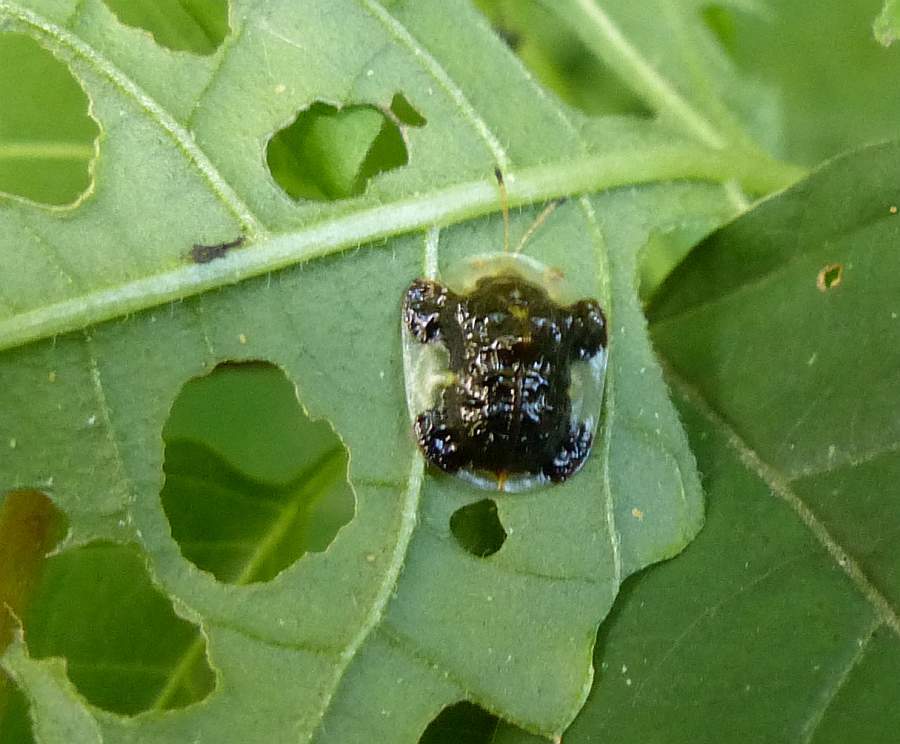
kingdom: Animalia
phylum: Arthropoda
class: Insecta
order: Coleoptera
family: Chrysomelidae
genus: Helocassis
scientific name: Helocassis clavata
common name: Clavate tortoise beetle
